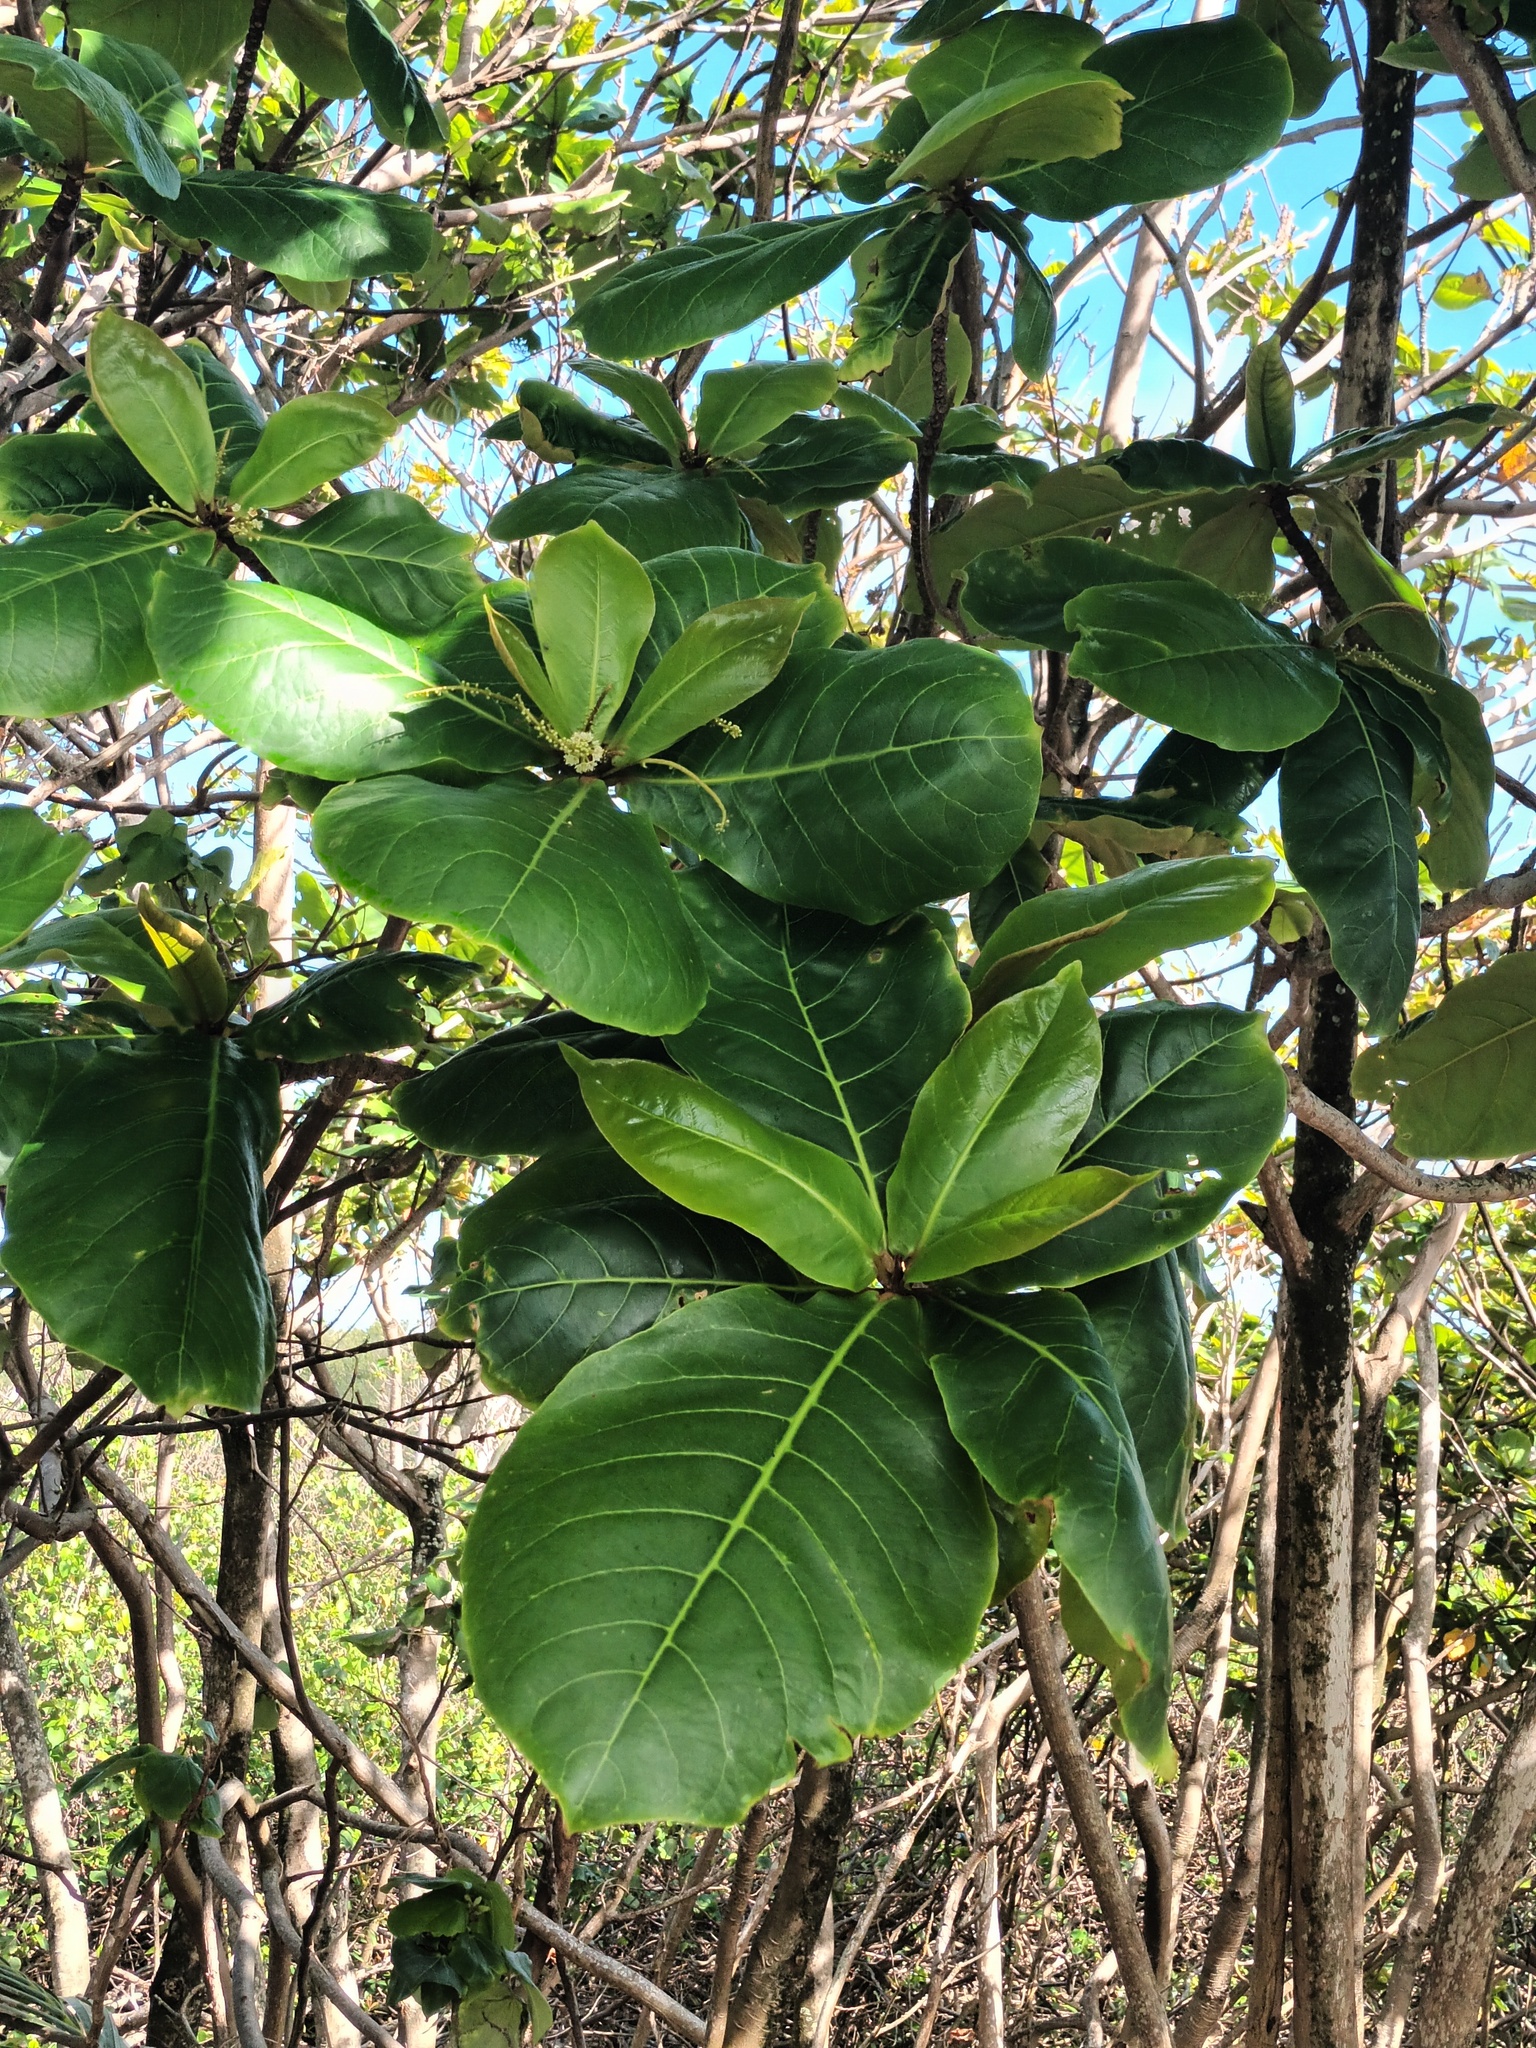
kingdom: Plantae
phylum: Tracheophyta
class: Magnoliopsida
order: Myrtales
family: Combretaceae
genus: Terminalia
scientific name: Terminalia catappa
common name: Tropical almond
